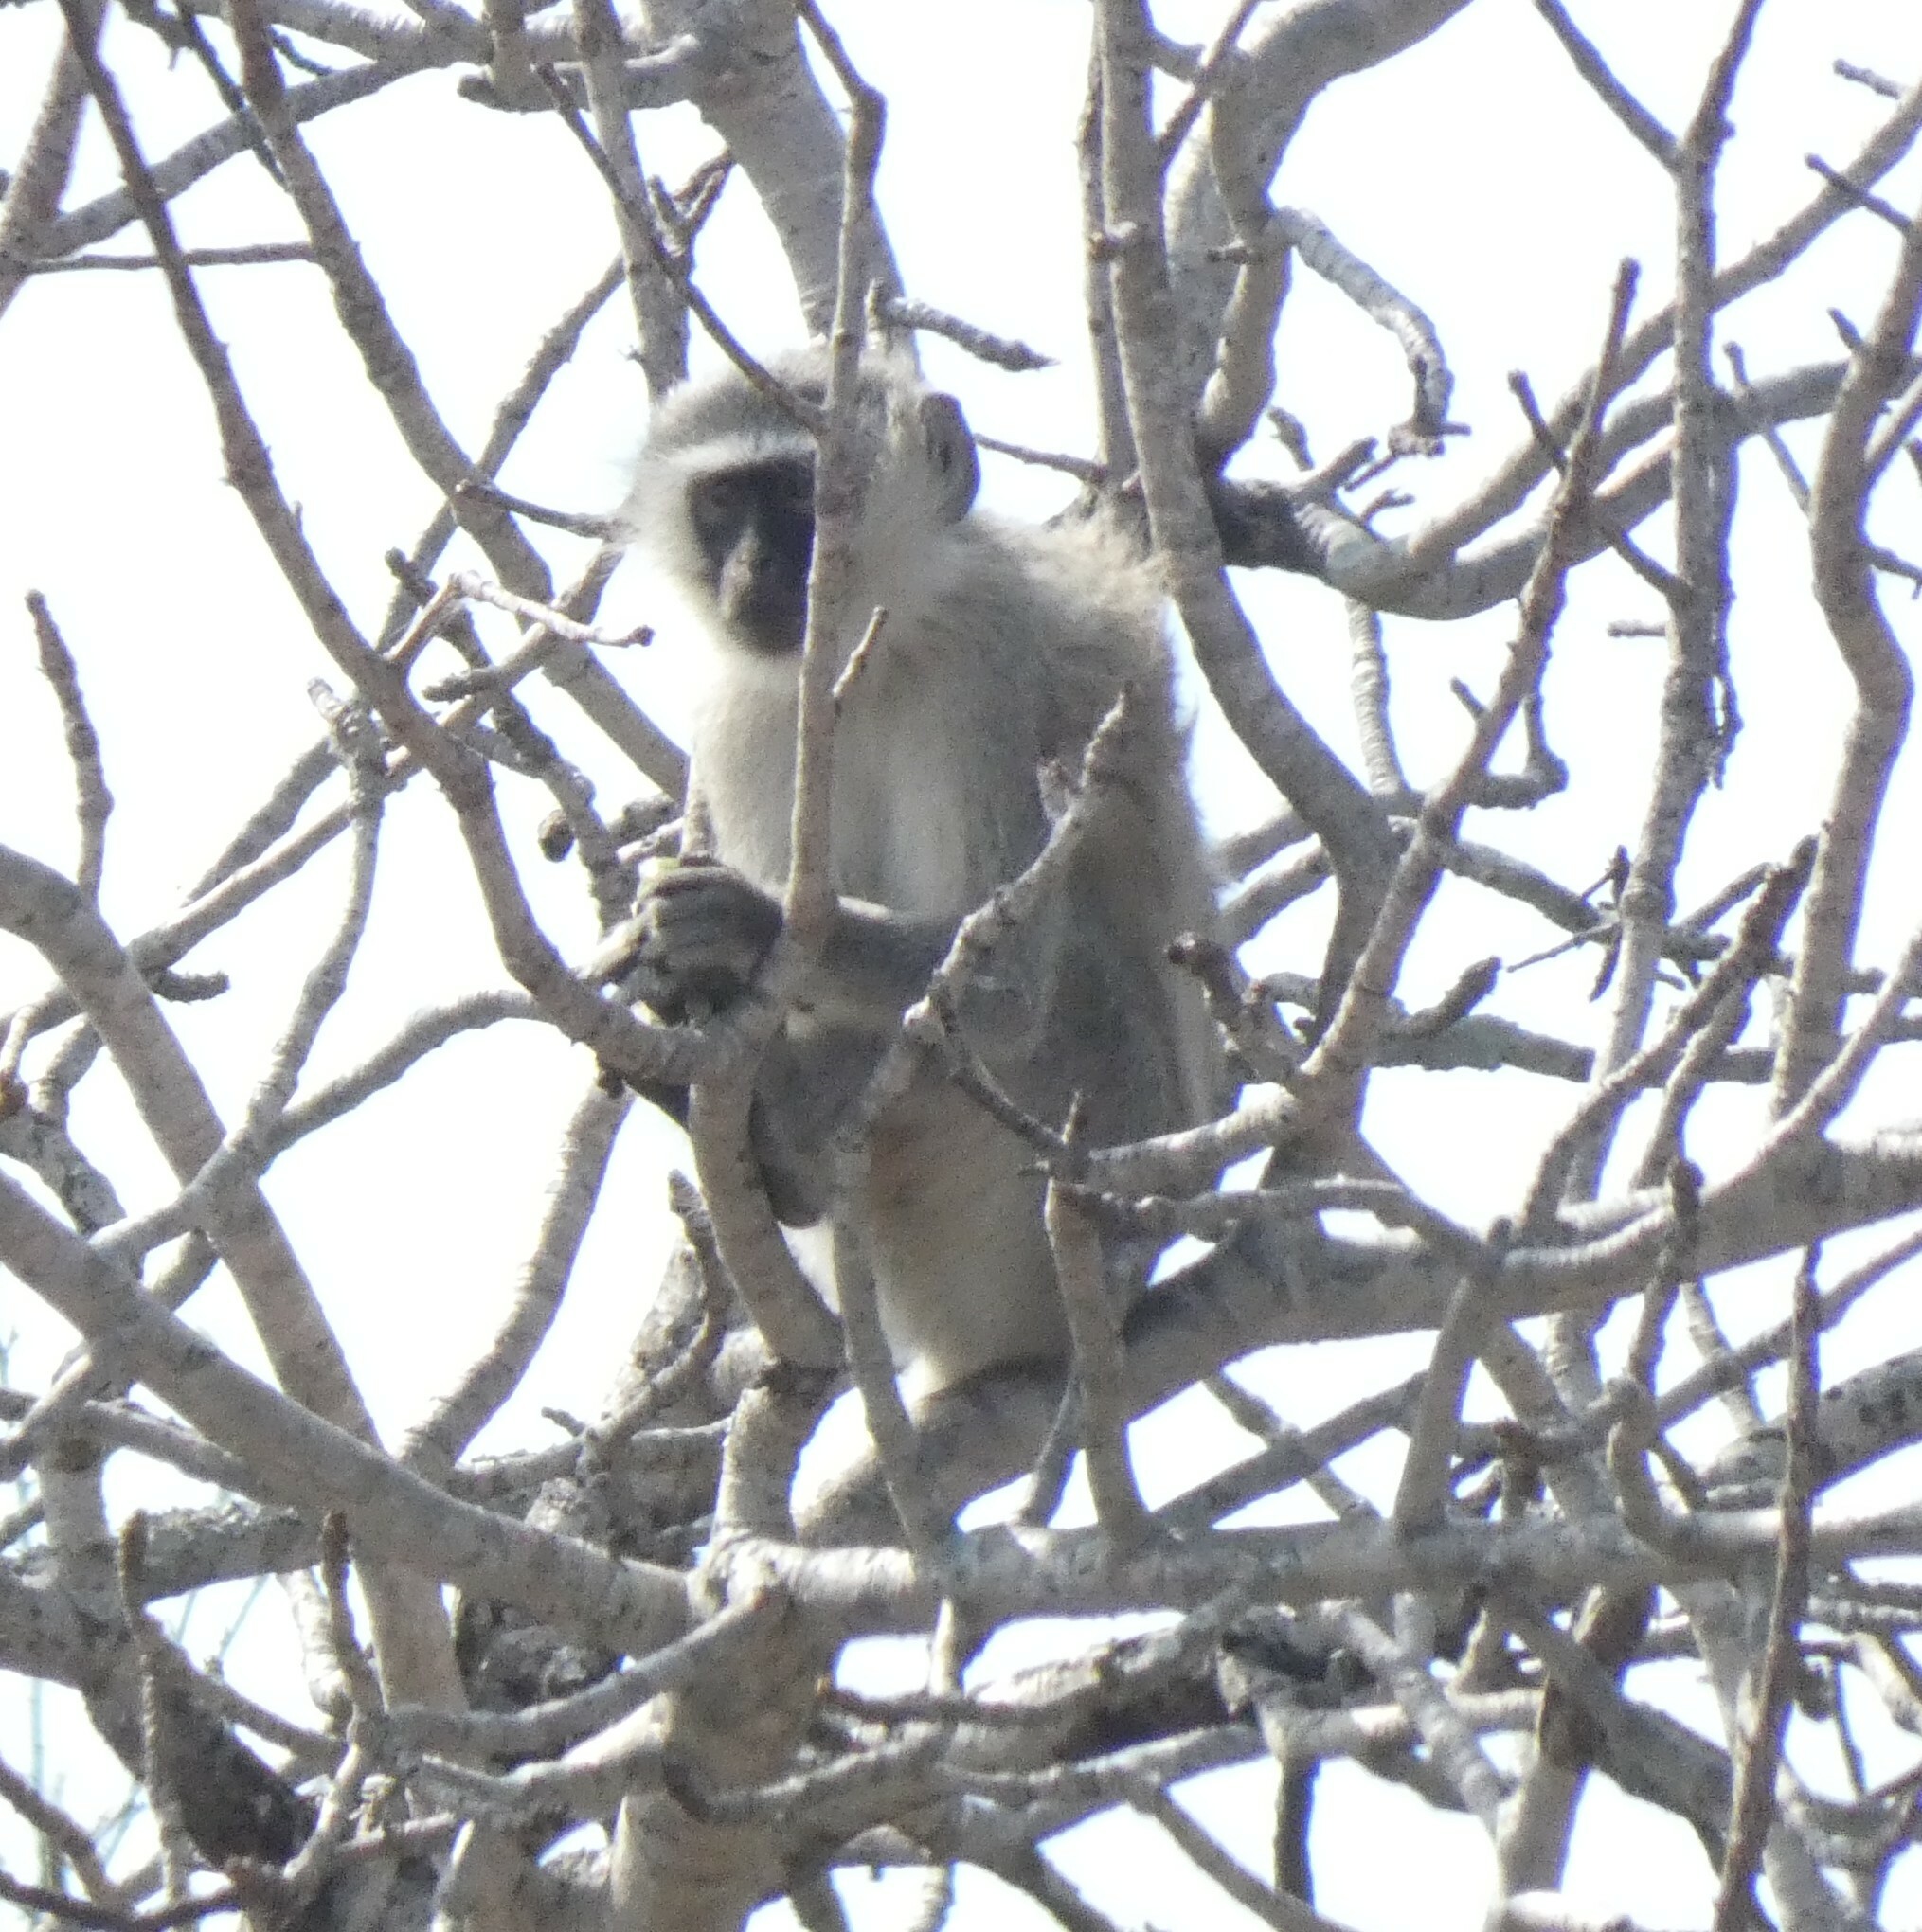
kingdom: Animalia
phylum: Chordata
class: Mammalia
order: Primates
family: Cercopithecidae
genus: Chlorocebus
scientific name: Chlorocebus pygerythrus
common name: Vervet monkey
